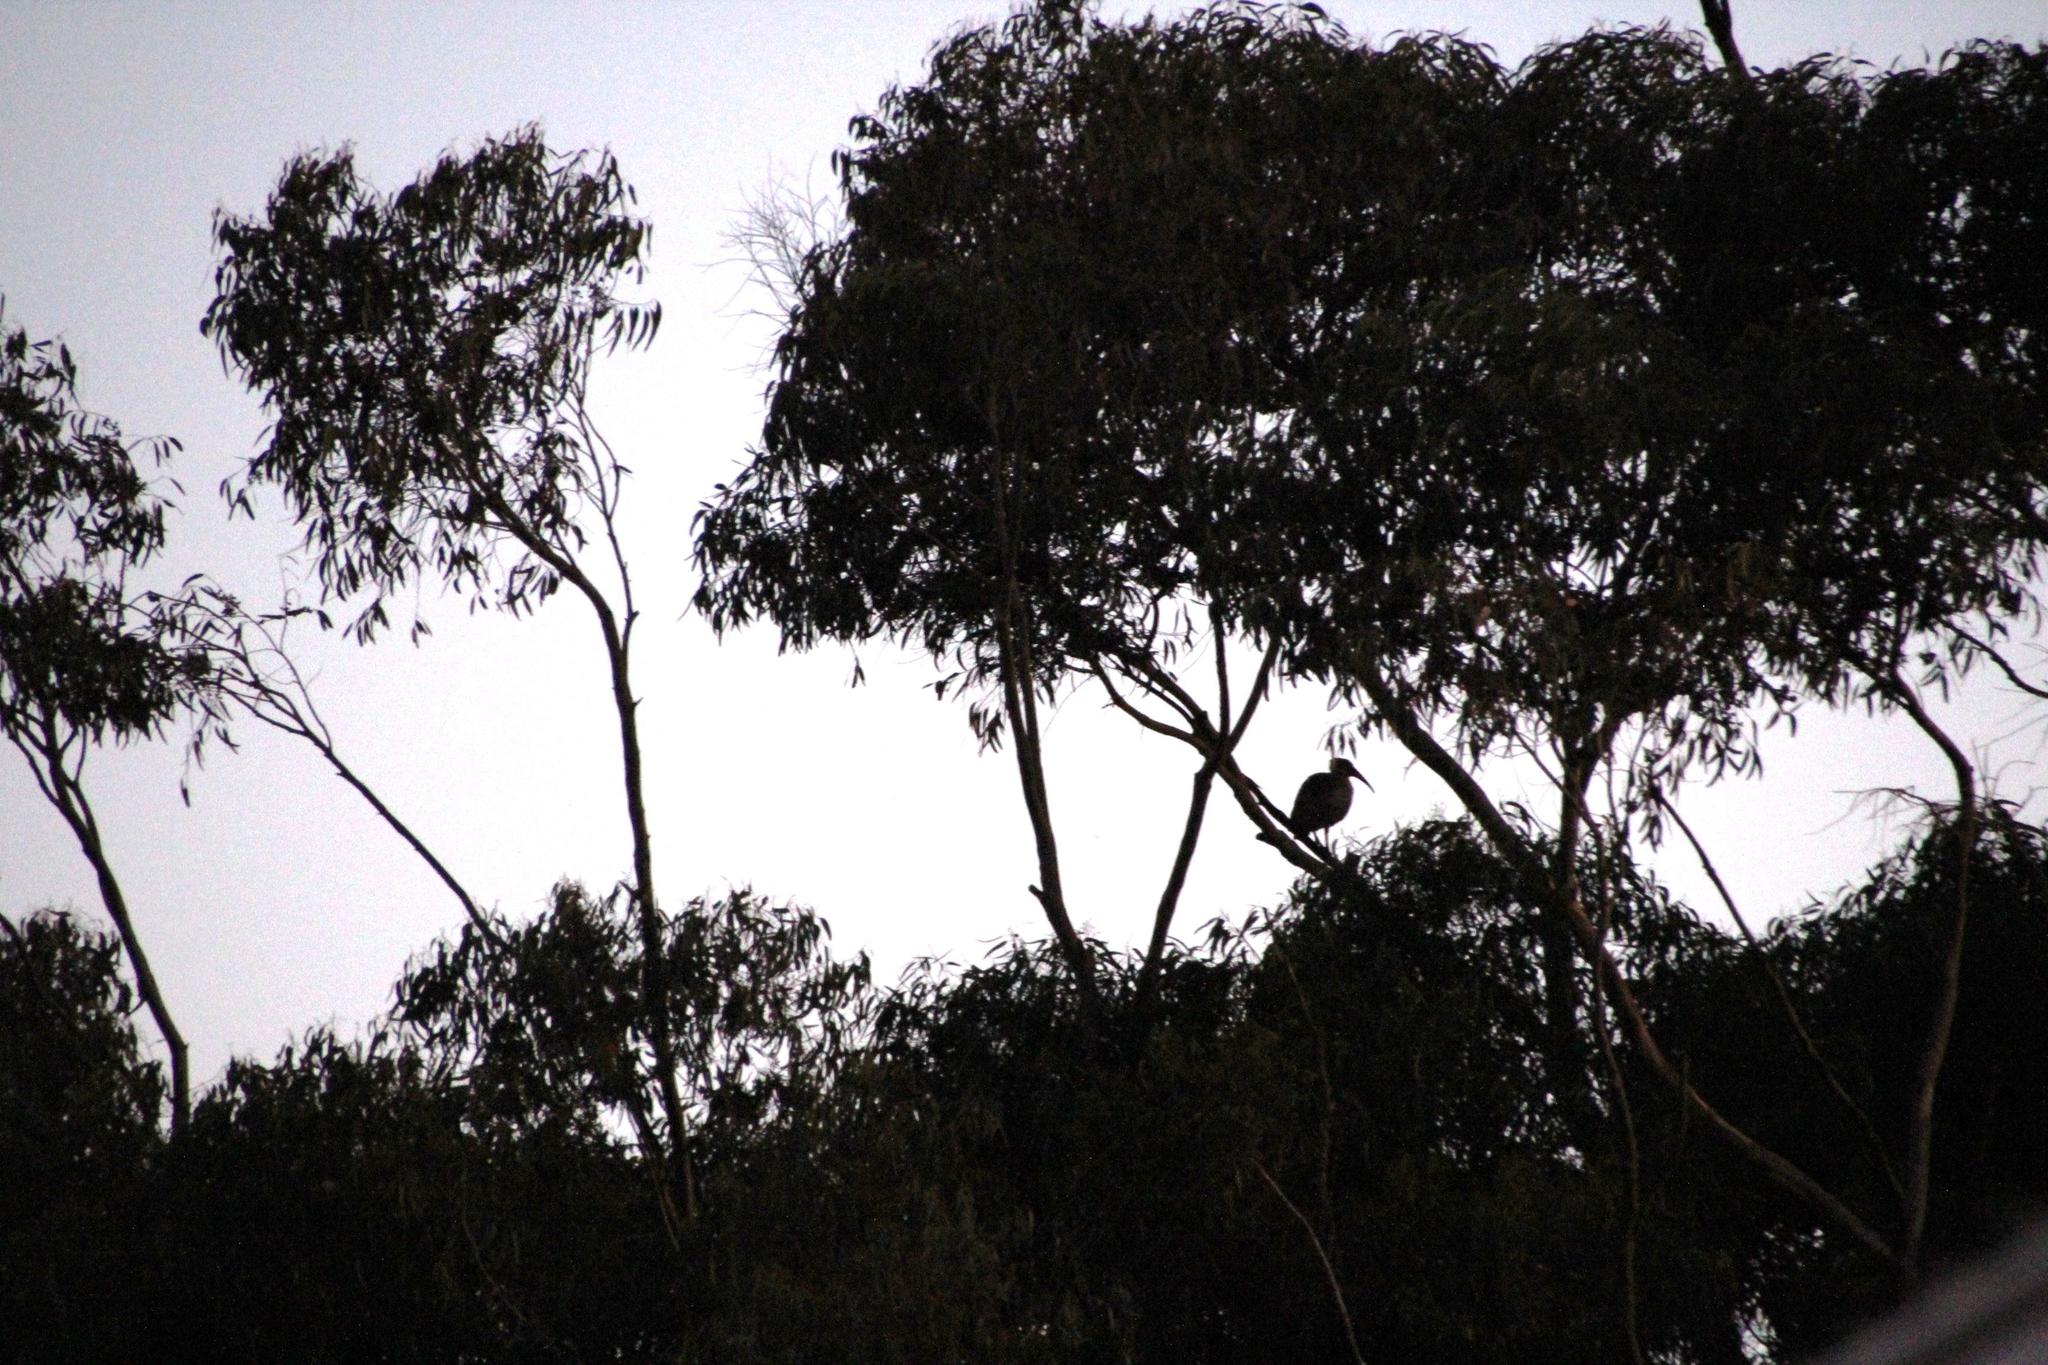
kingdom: Animalia
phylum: Chordata
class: Aves
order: Pelecaniformes
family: Threskiornithidae
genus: Bostrychia
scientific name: Bostrychia hagedash
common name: Hadada ibis
